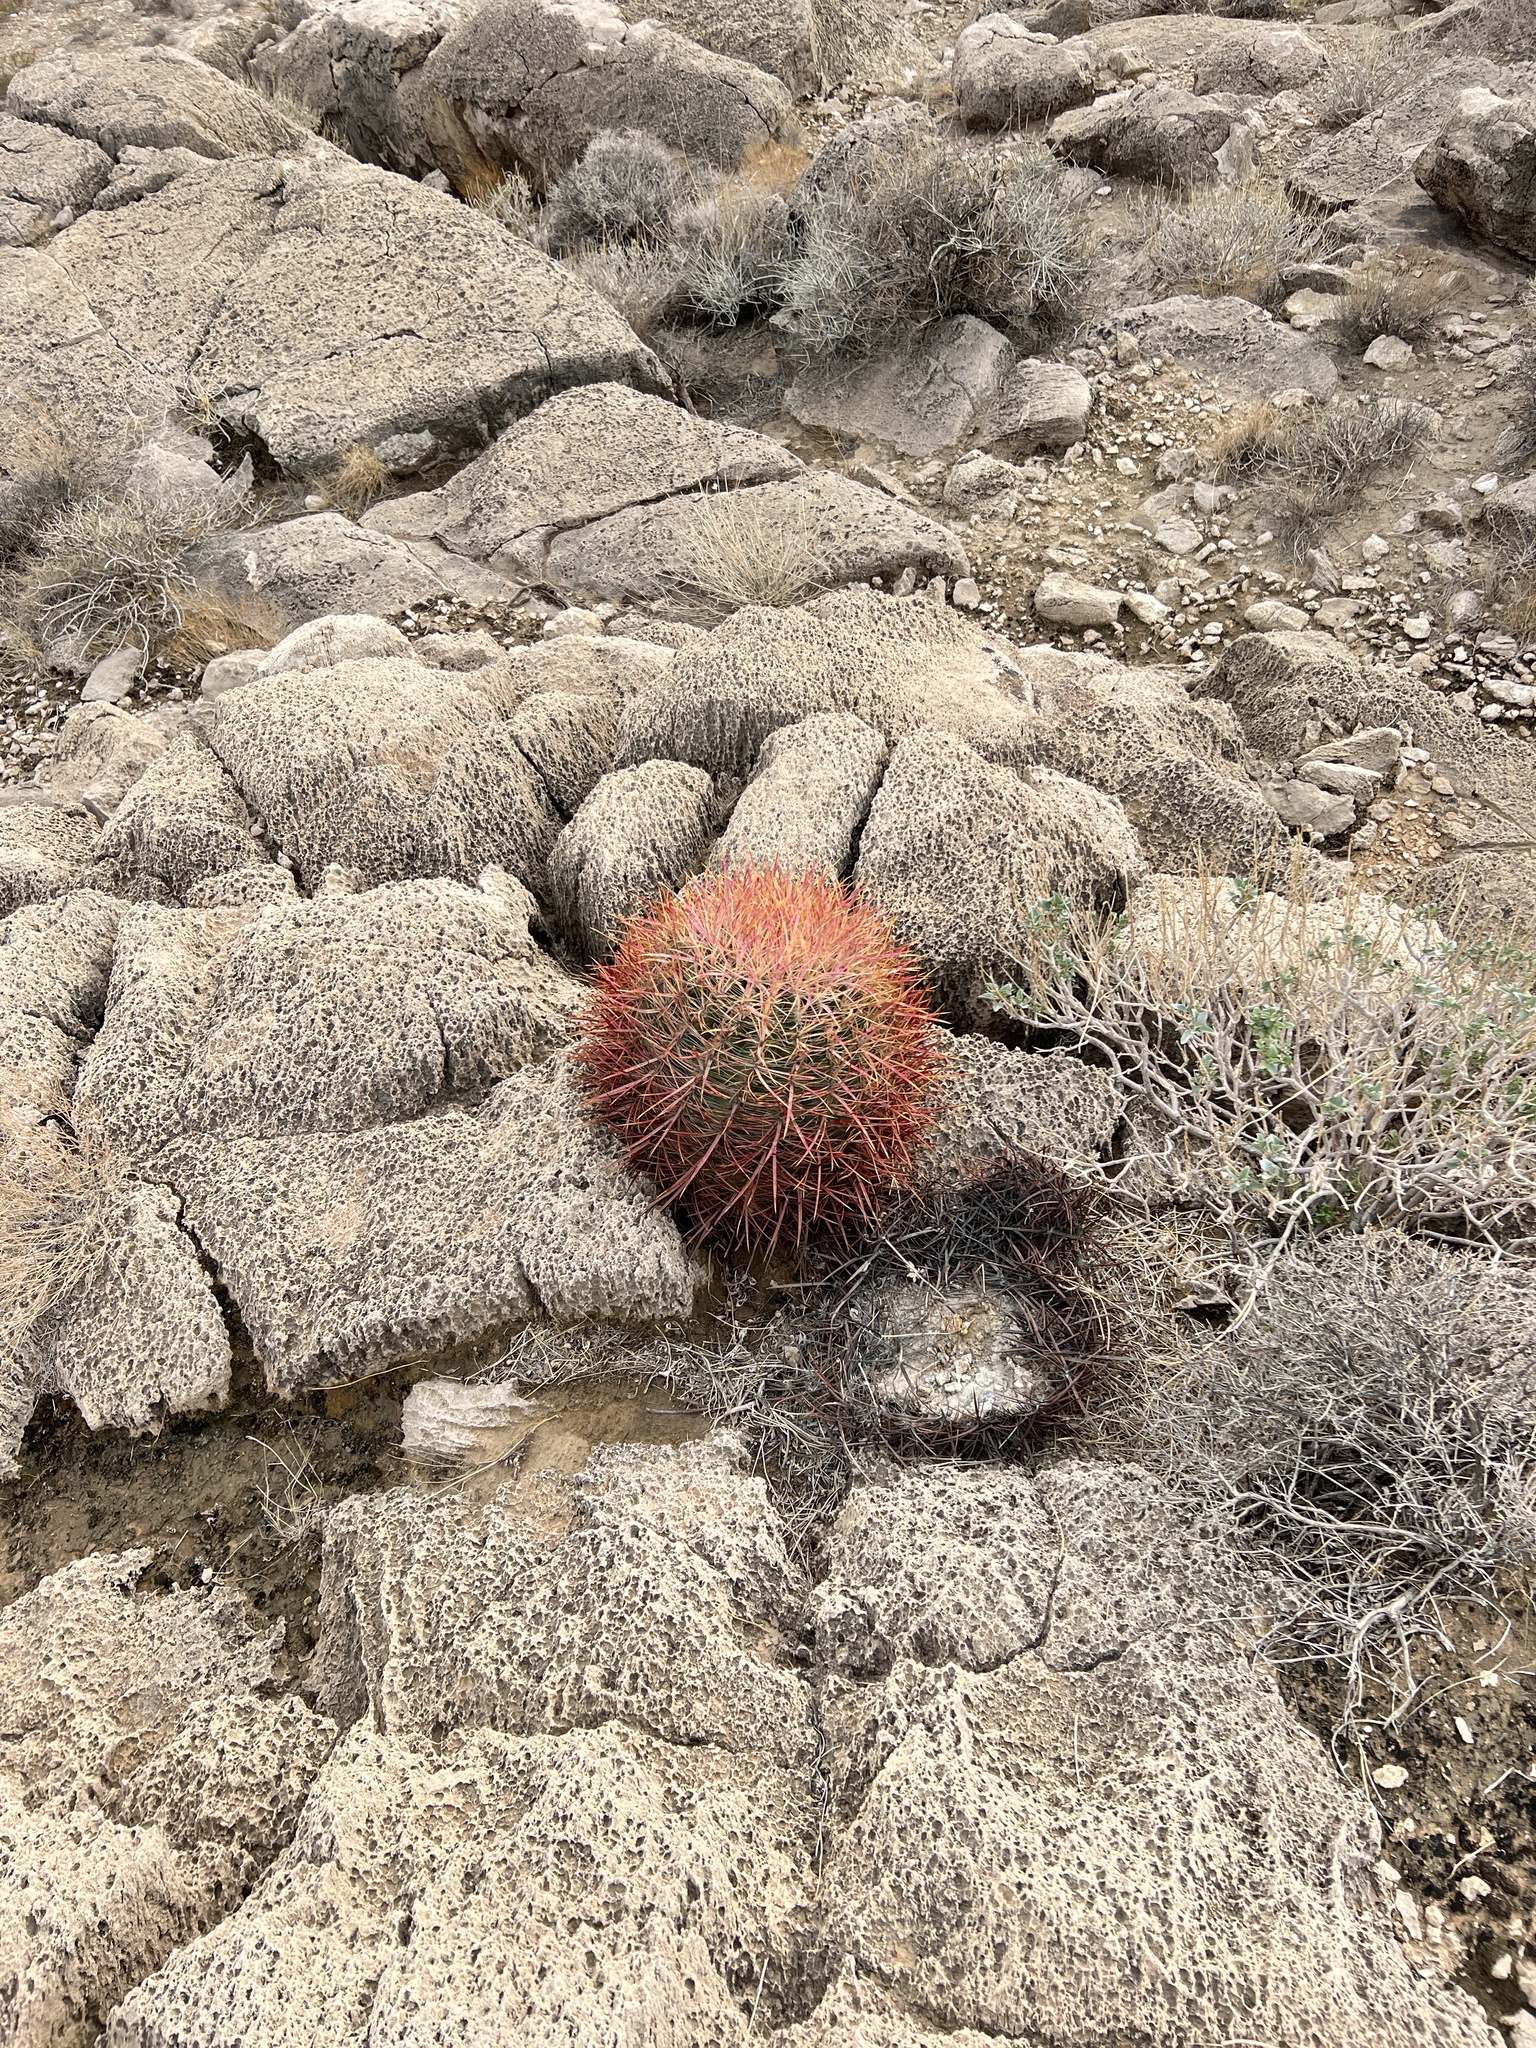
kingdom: Plantae
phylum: Tracheophyta
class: Magnoliopsida
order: Caryophyllales
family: Cactaceae
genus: Ferocactus
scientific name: Ferocactus cylindraceus
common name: California barrel cactus
